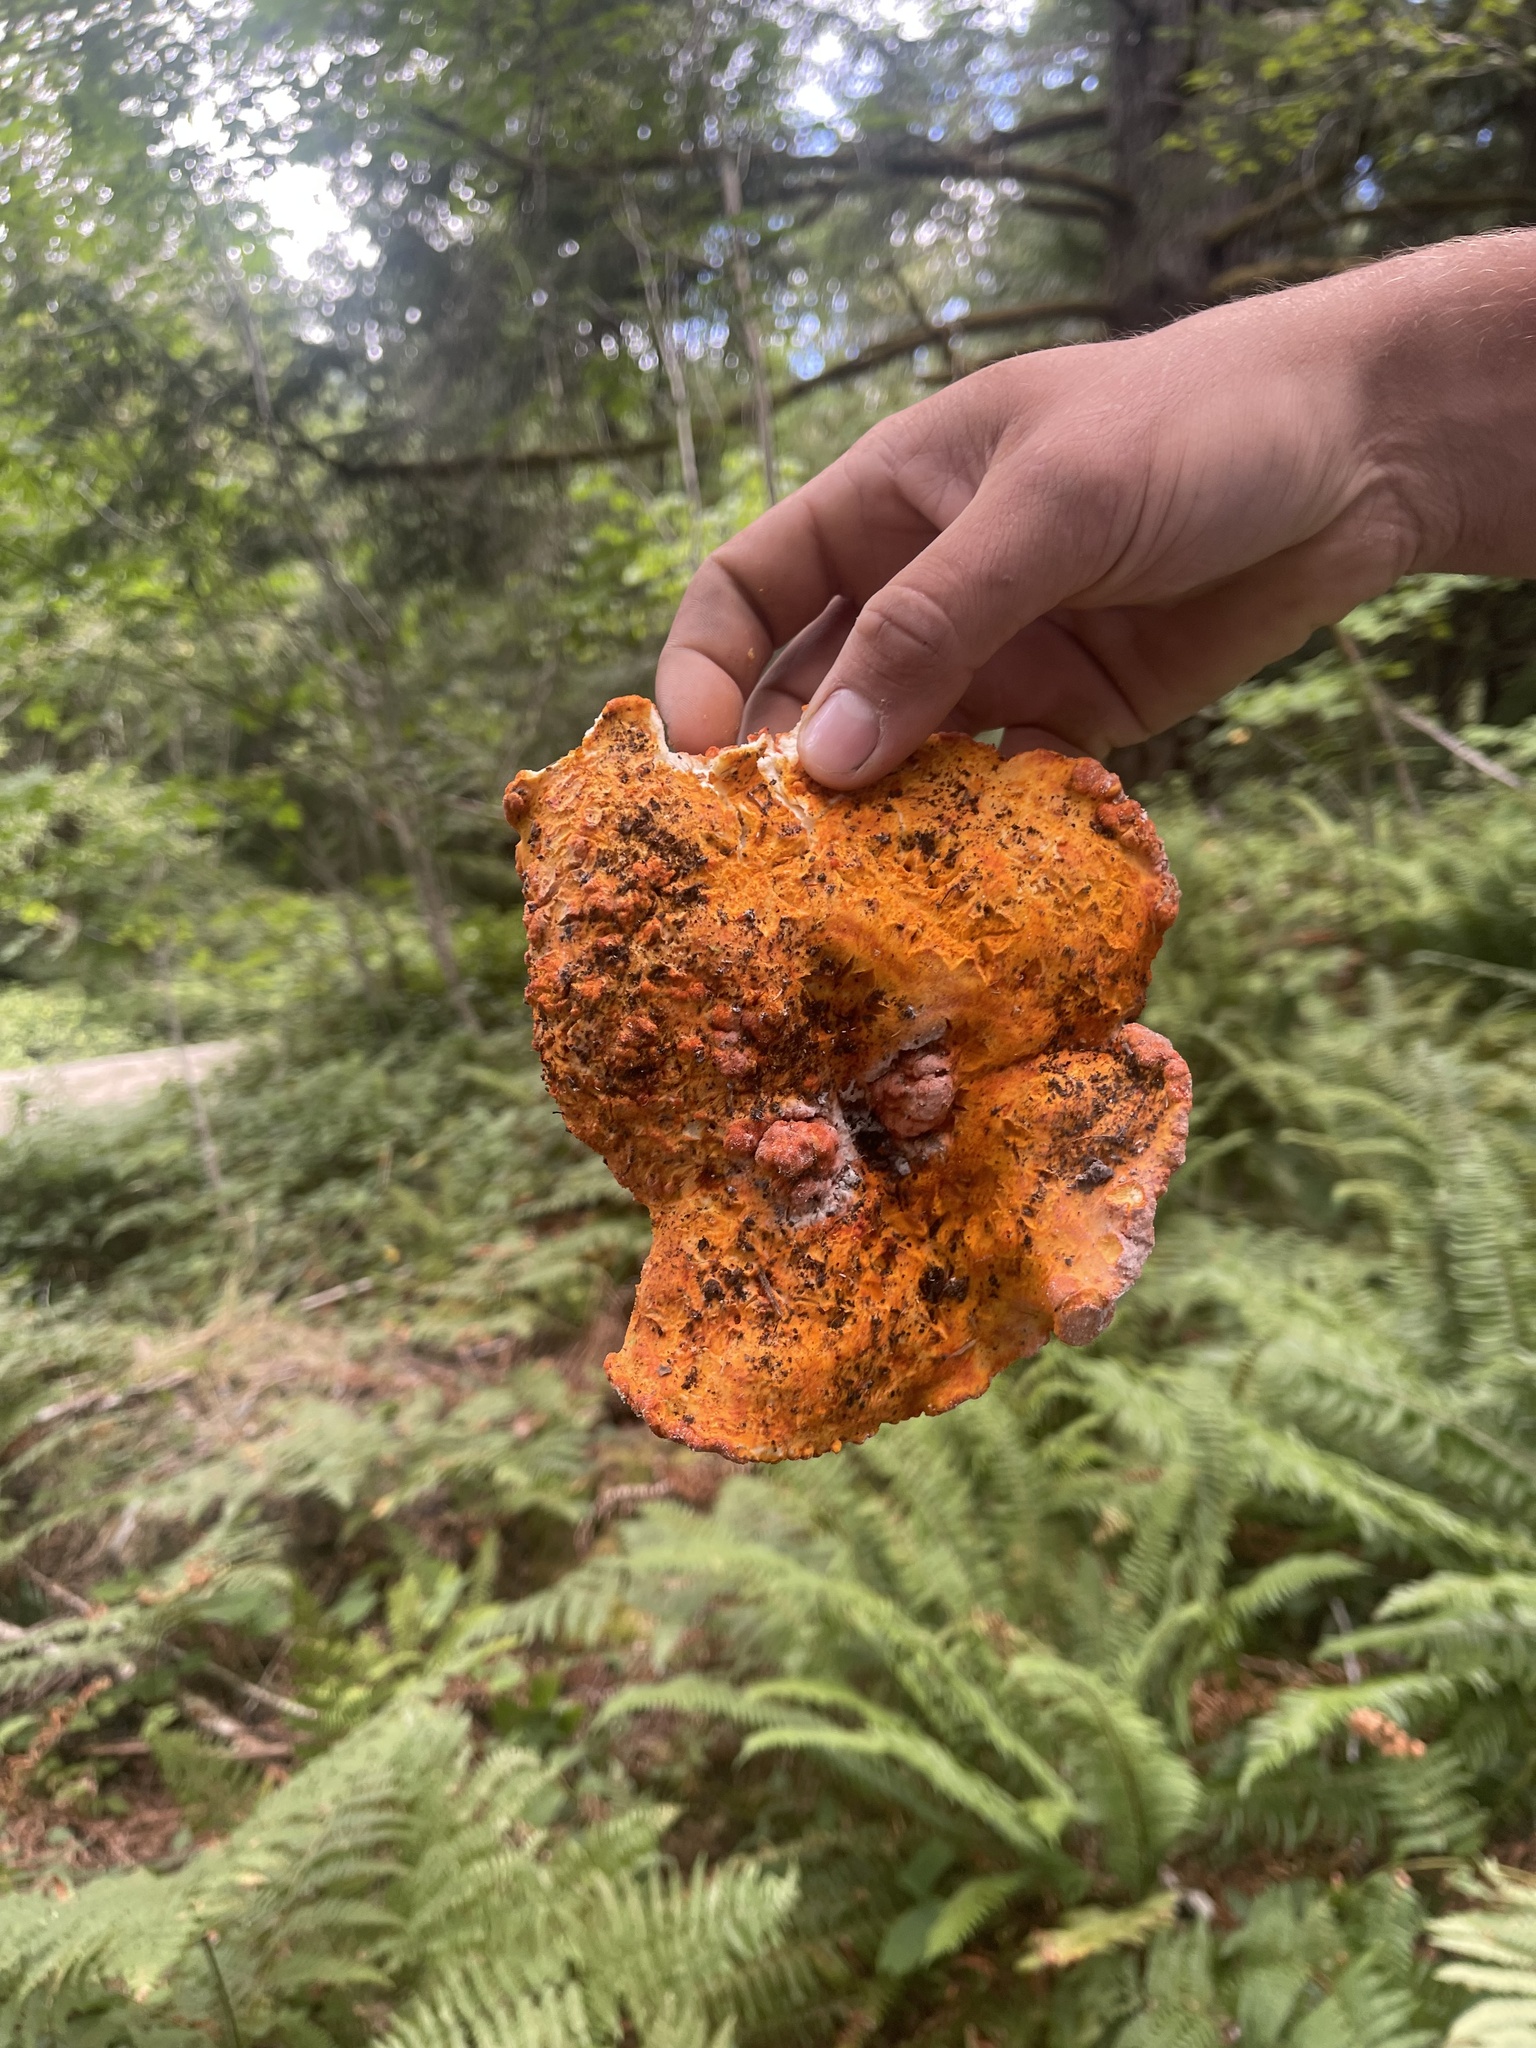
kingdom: Fungi
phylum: Ascomycota
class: Sordariomycetes
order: Hypocreales
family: Hypocreaceae
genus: Hypomyces
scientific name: Hypomyces lactifluorum
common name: Lobster mushroom
